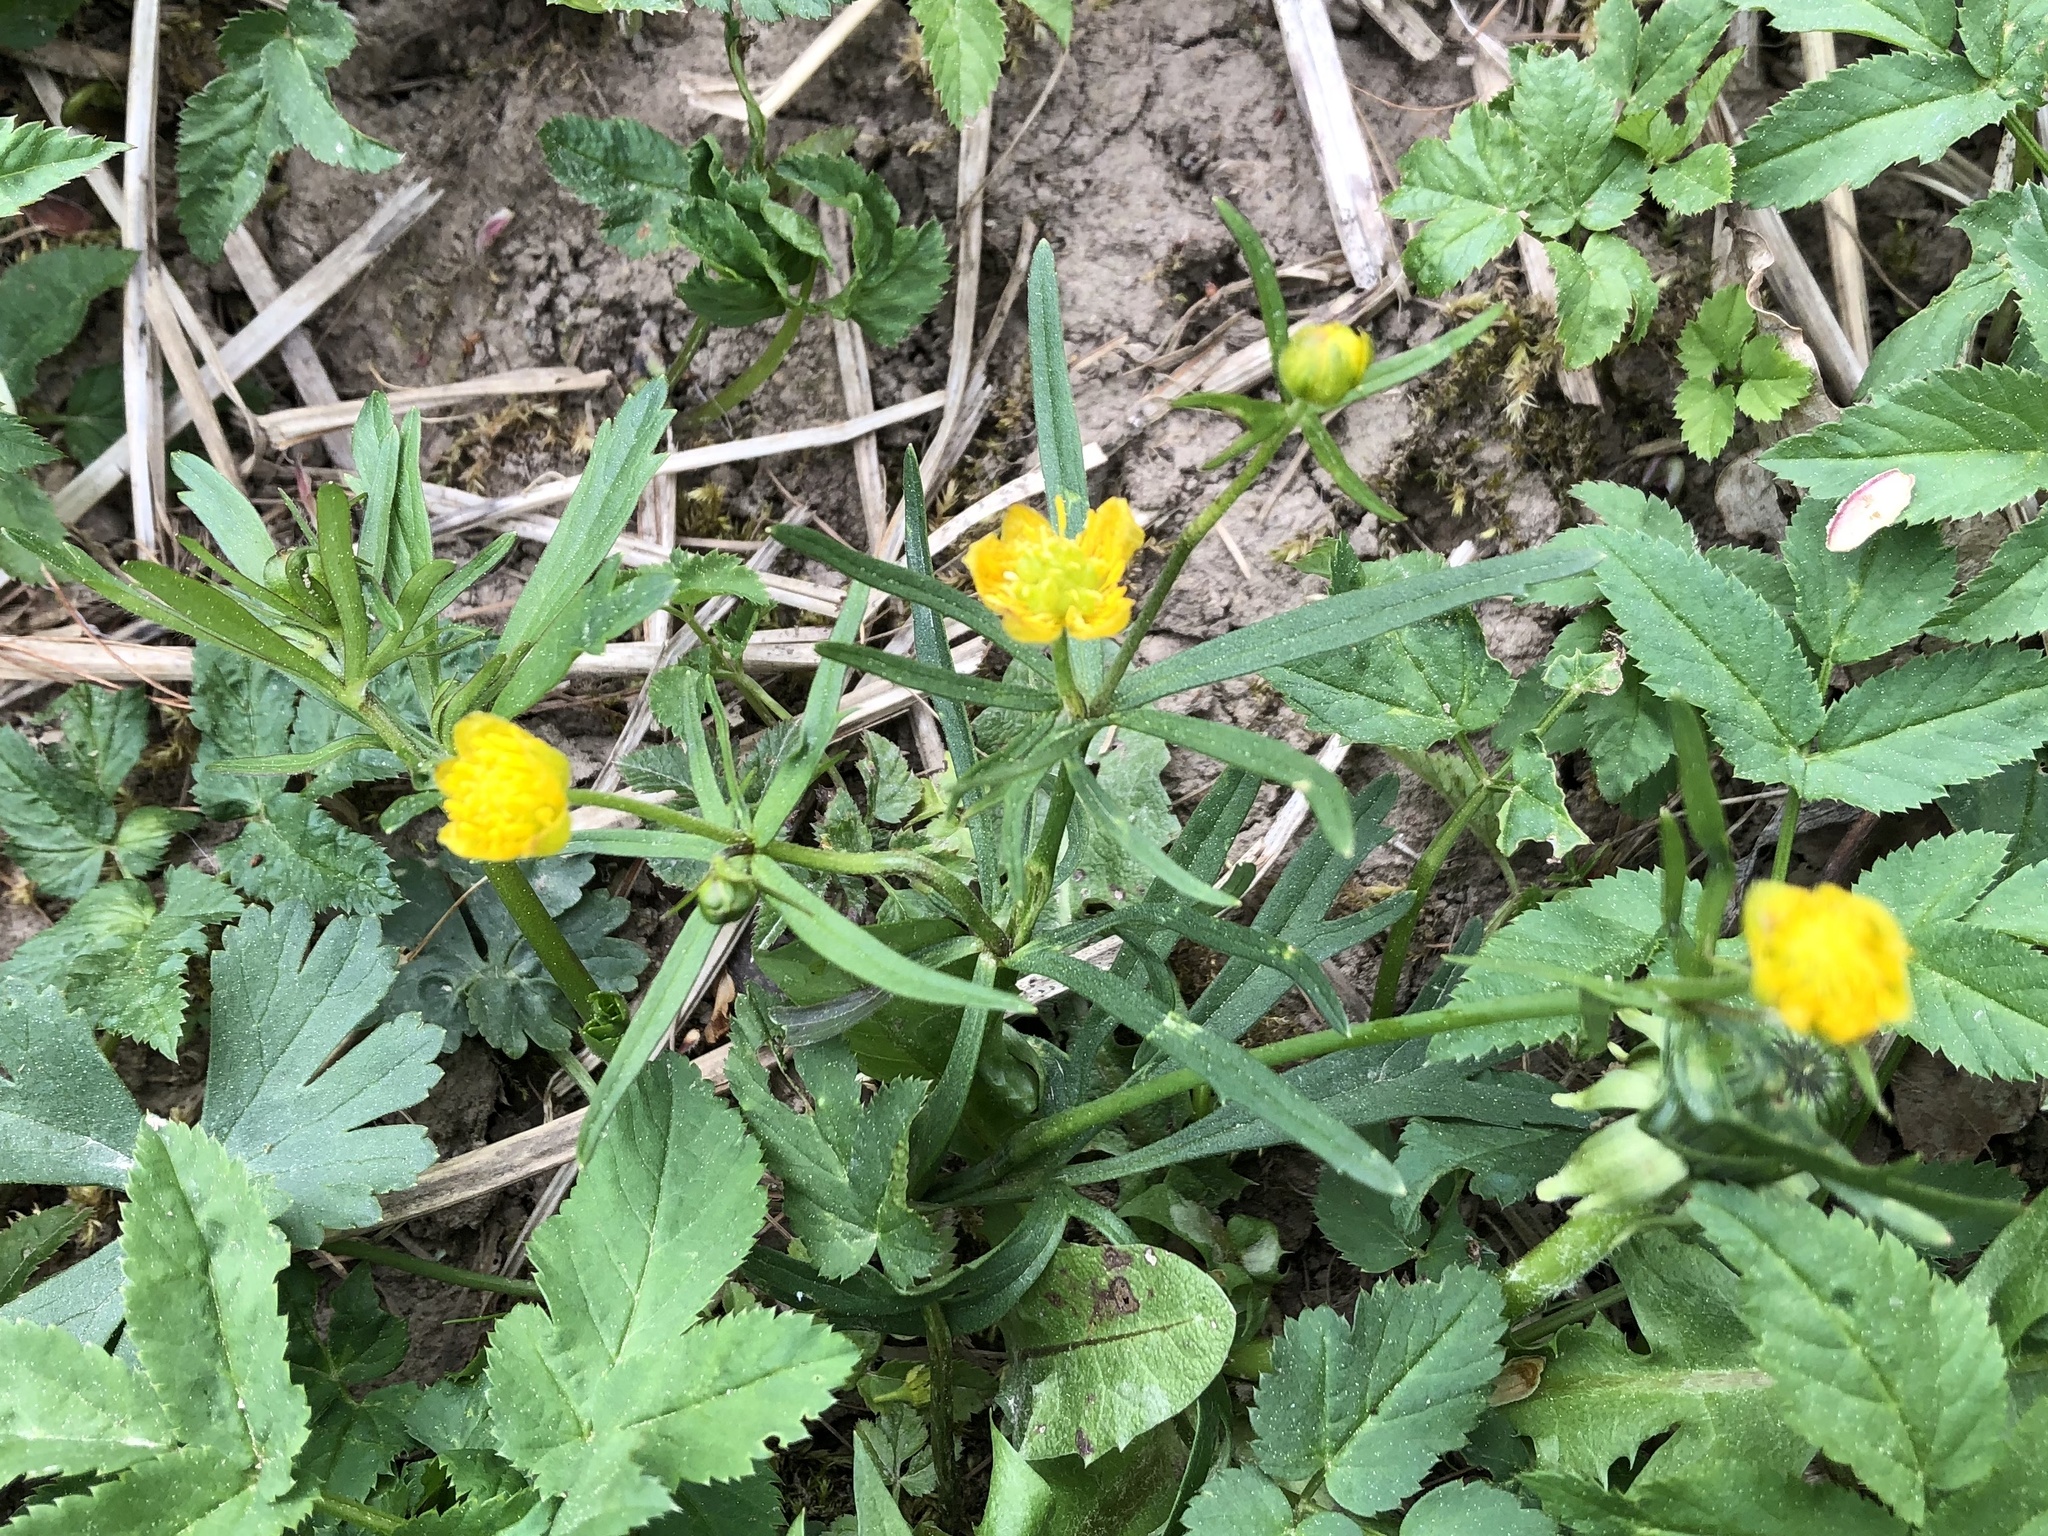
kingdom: Plantae
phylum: Tracheophyta
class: Magnoliopsida
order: Ranunculales
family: Ranunculaceae
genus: Ranunculus
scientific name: Ranunculus auricomus
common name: Goldilocks buttercup
